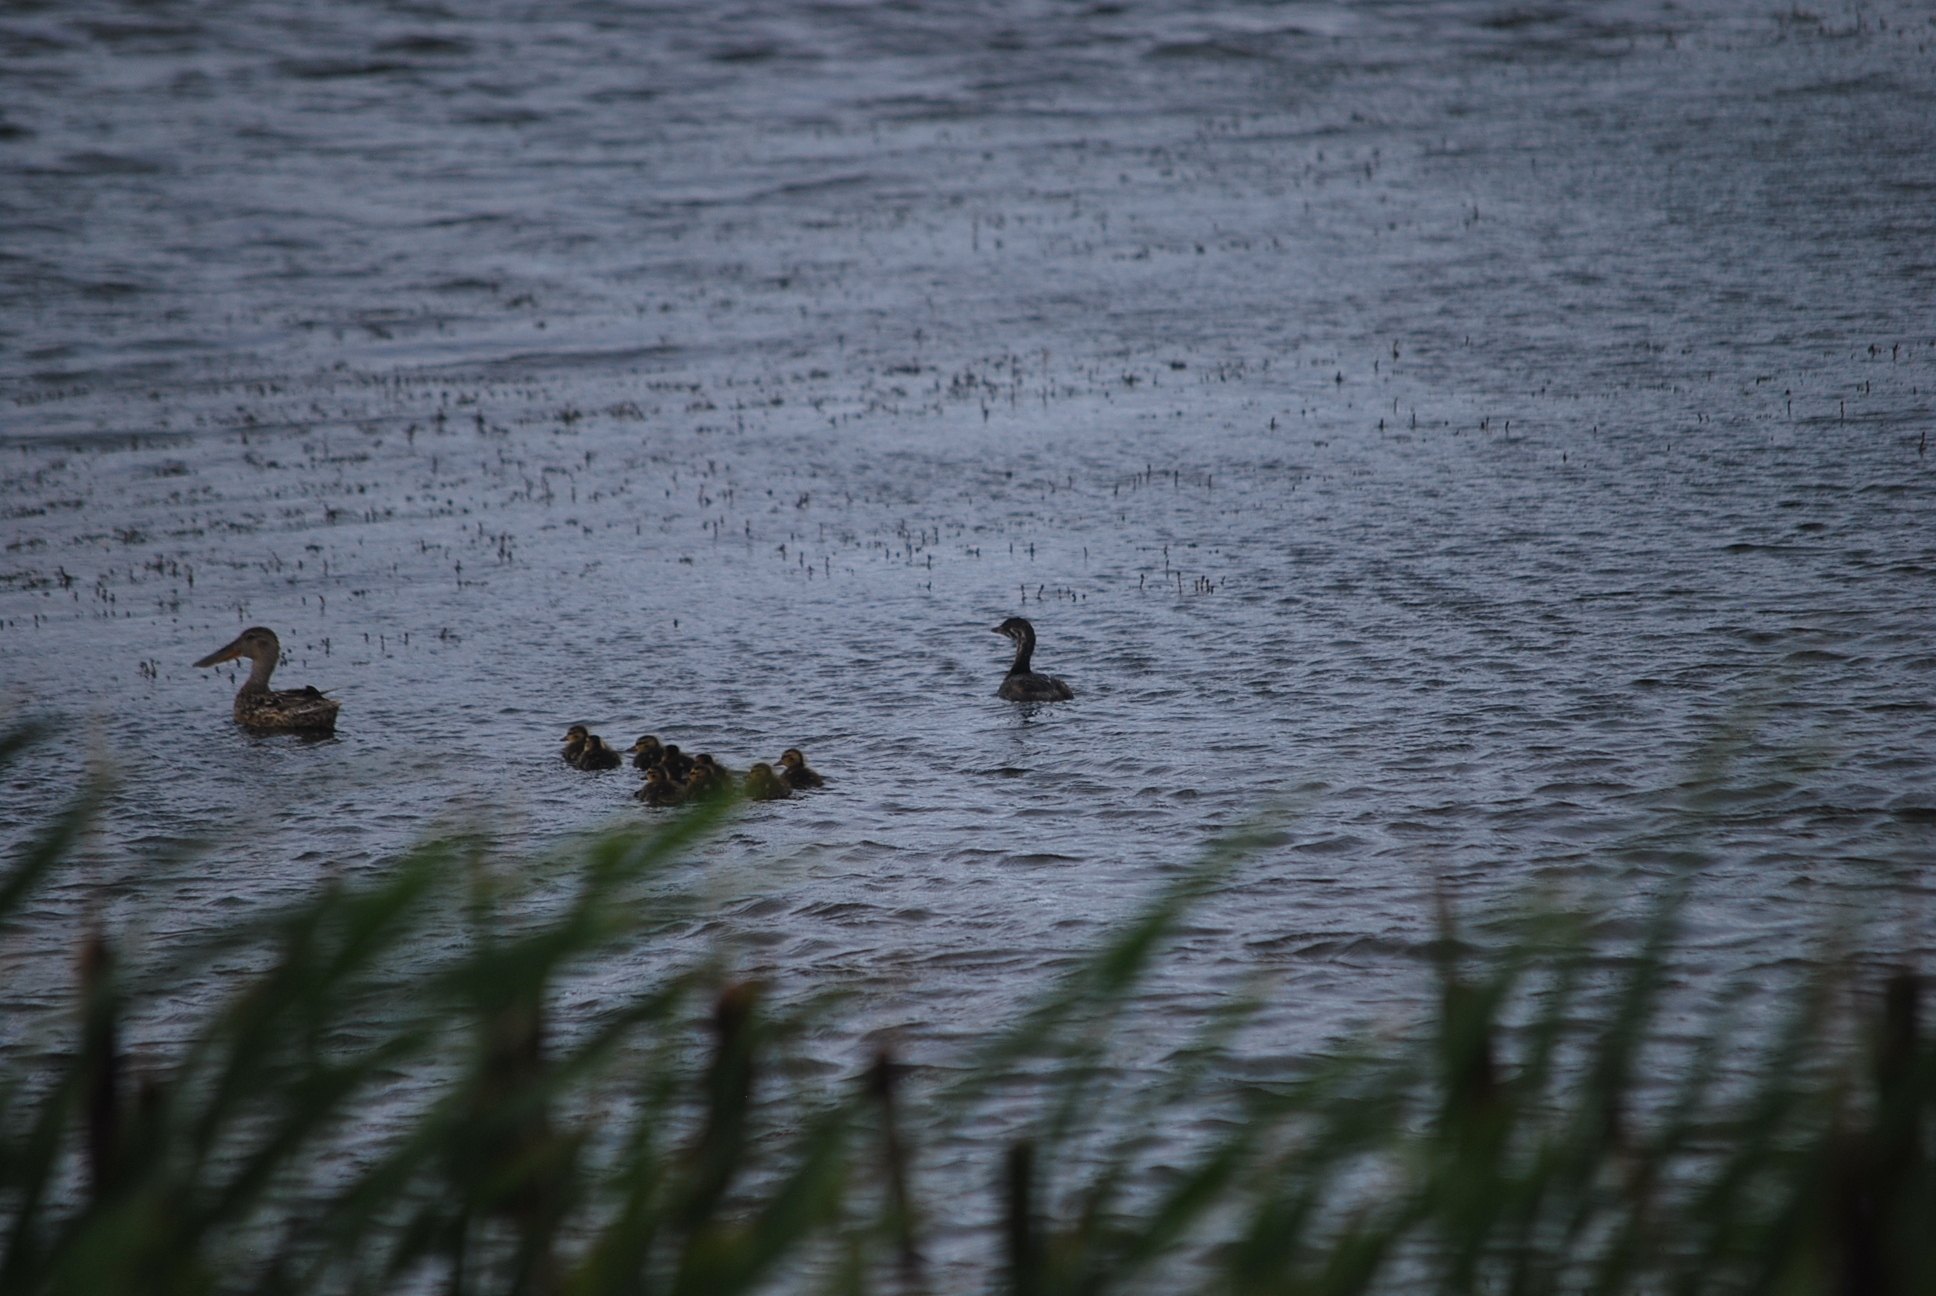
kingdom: Animalia
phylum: Chordata
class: Aves
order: Anseriformes
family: Anatidae
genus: Spatula
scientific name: Spatula clypeata
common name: Northern shoveler
